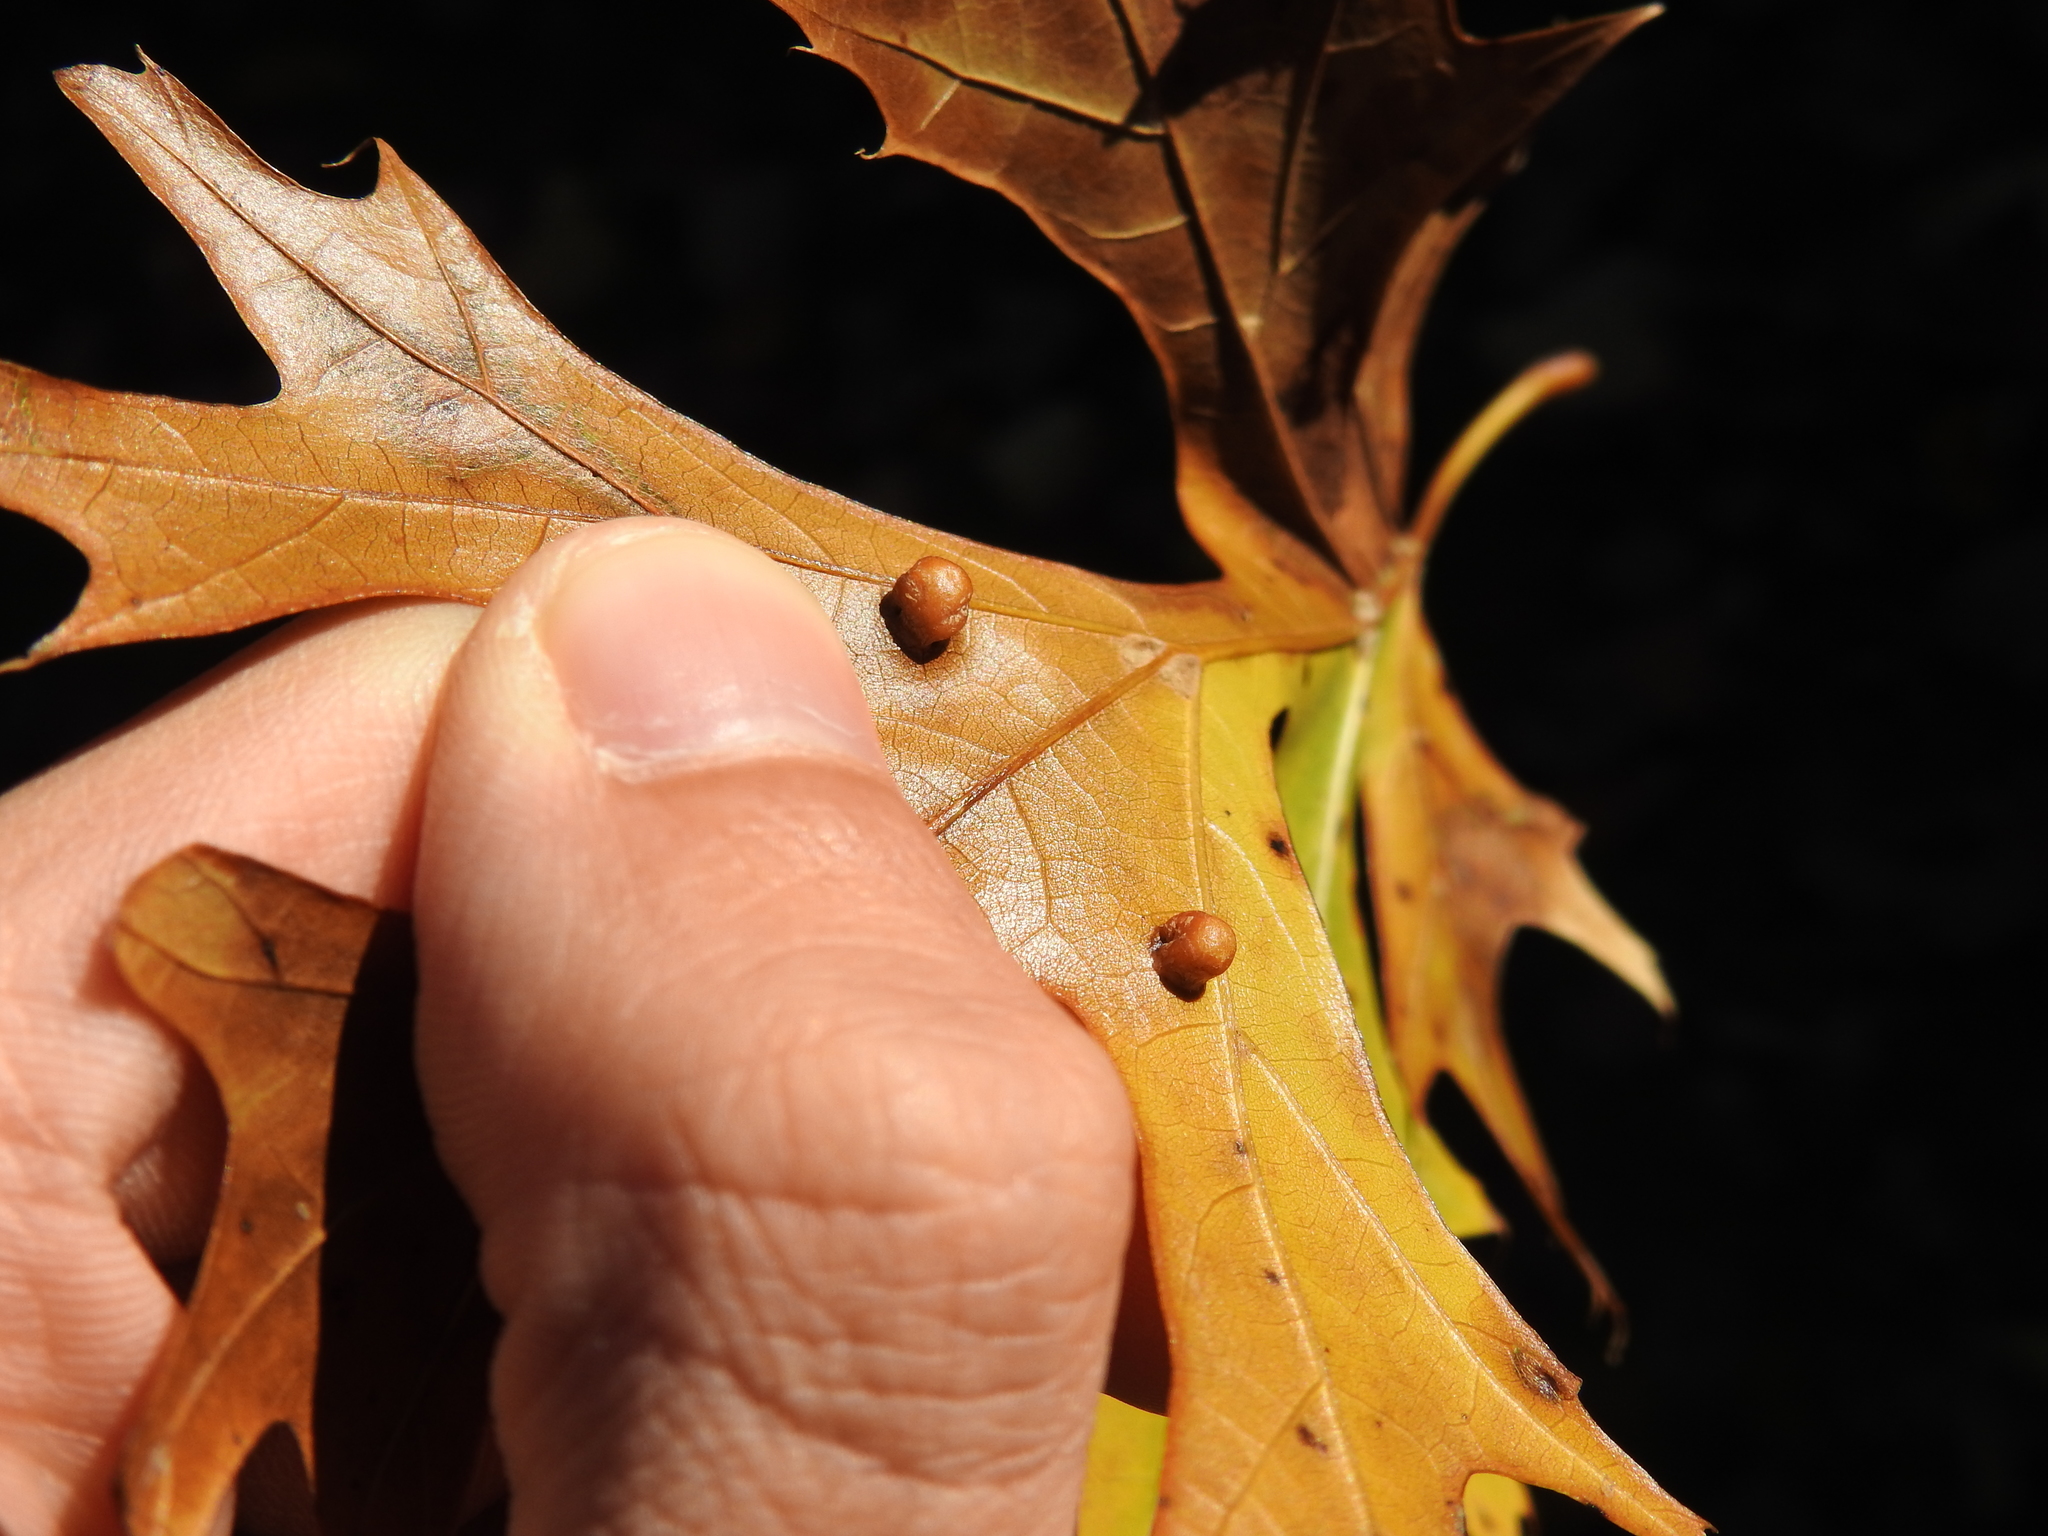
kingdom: Animalia
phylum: Arthropoda
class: Insecta
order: Diptera
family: Cecidomyiidae
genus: Polystepha
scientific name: Polystepha globosa
